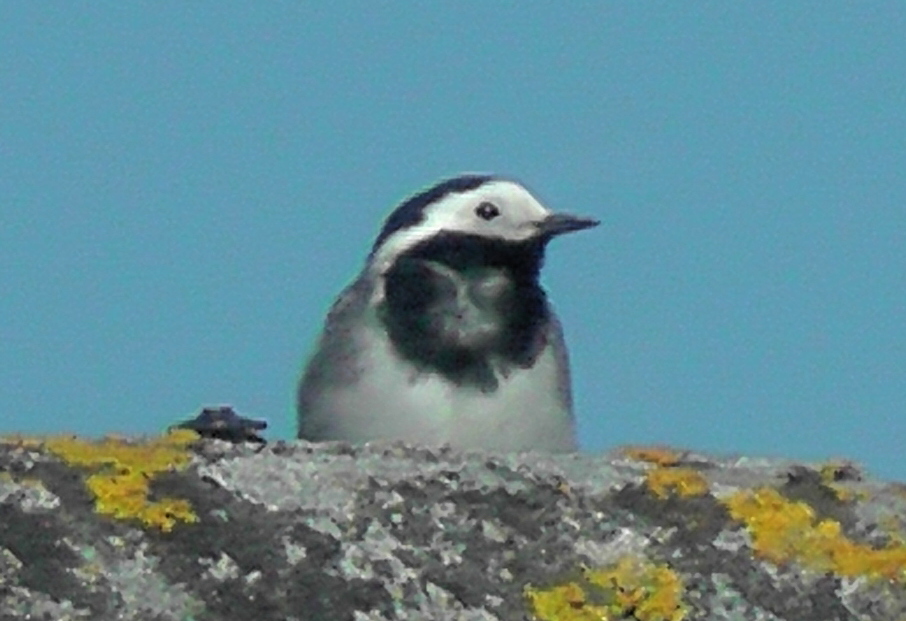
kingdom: Animalia
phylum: Chordata
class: Aves
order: Passeriformes
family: Motacillidae
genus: Motacilla
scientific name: Motacilla alba
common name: White wagtail
